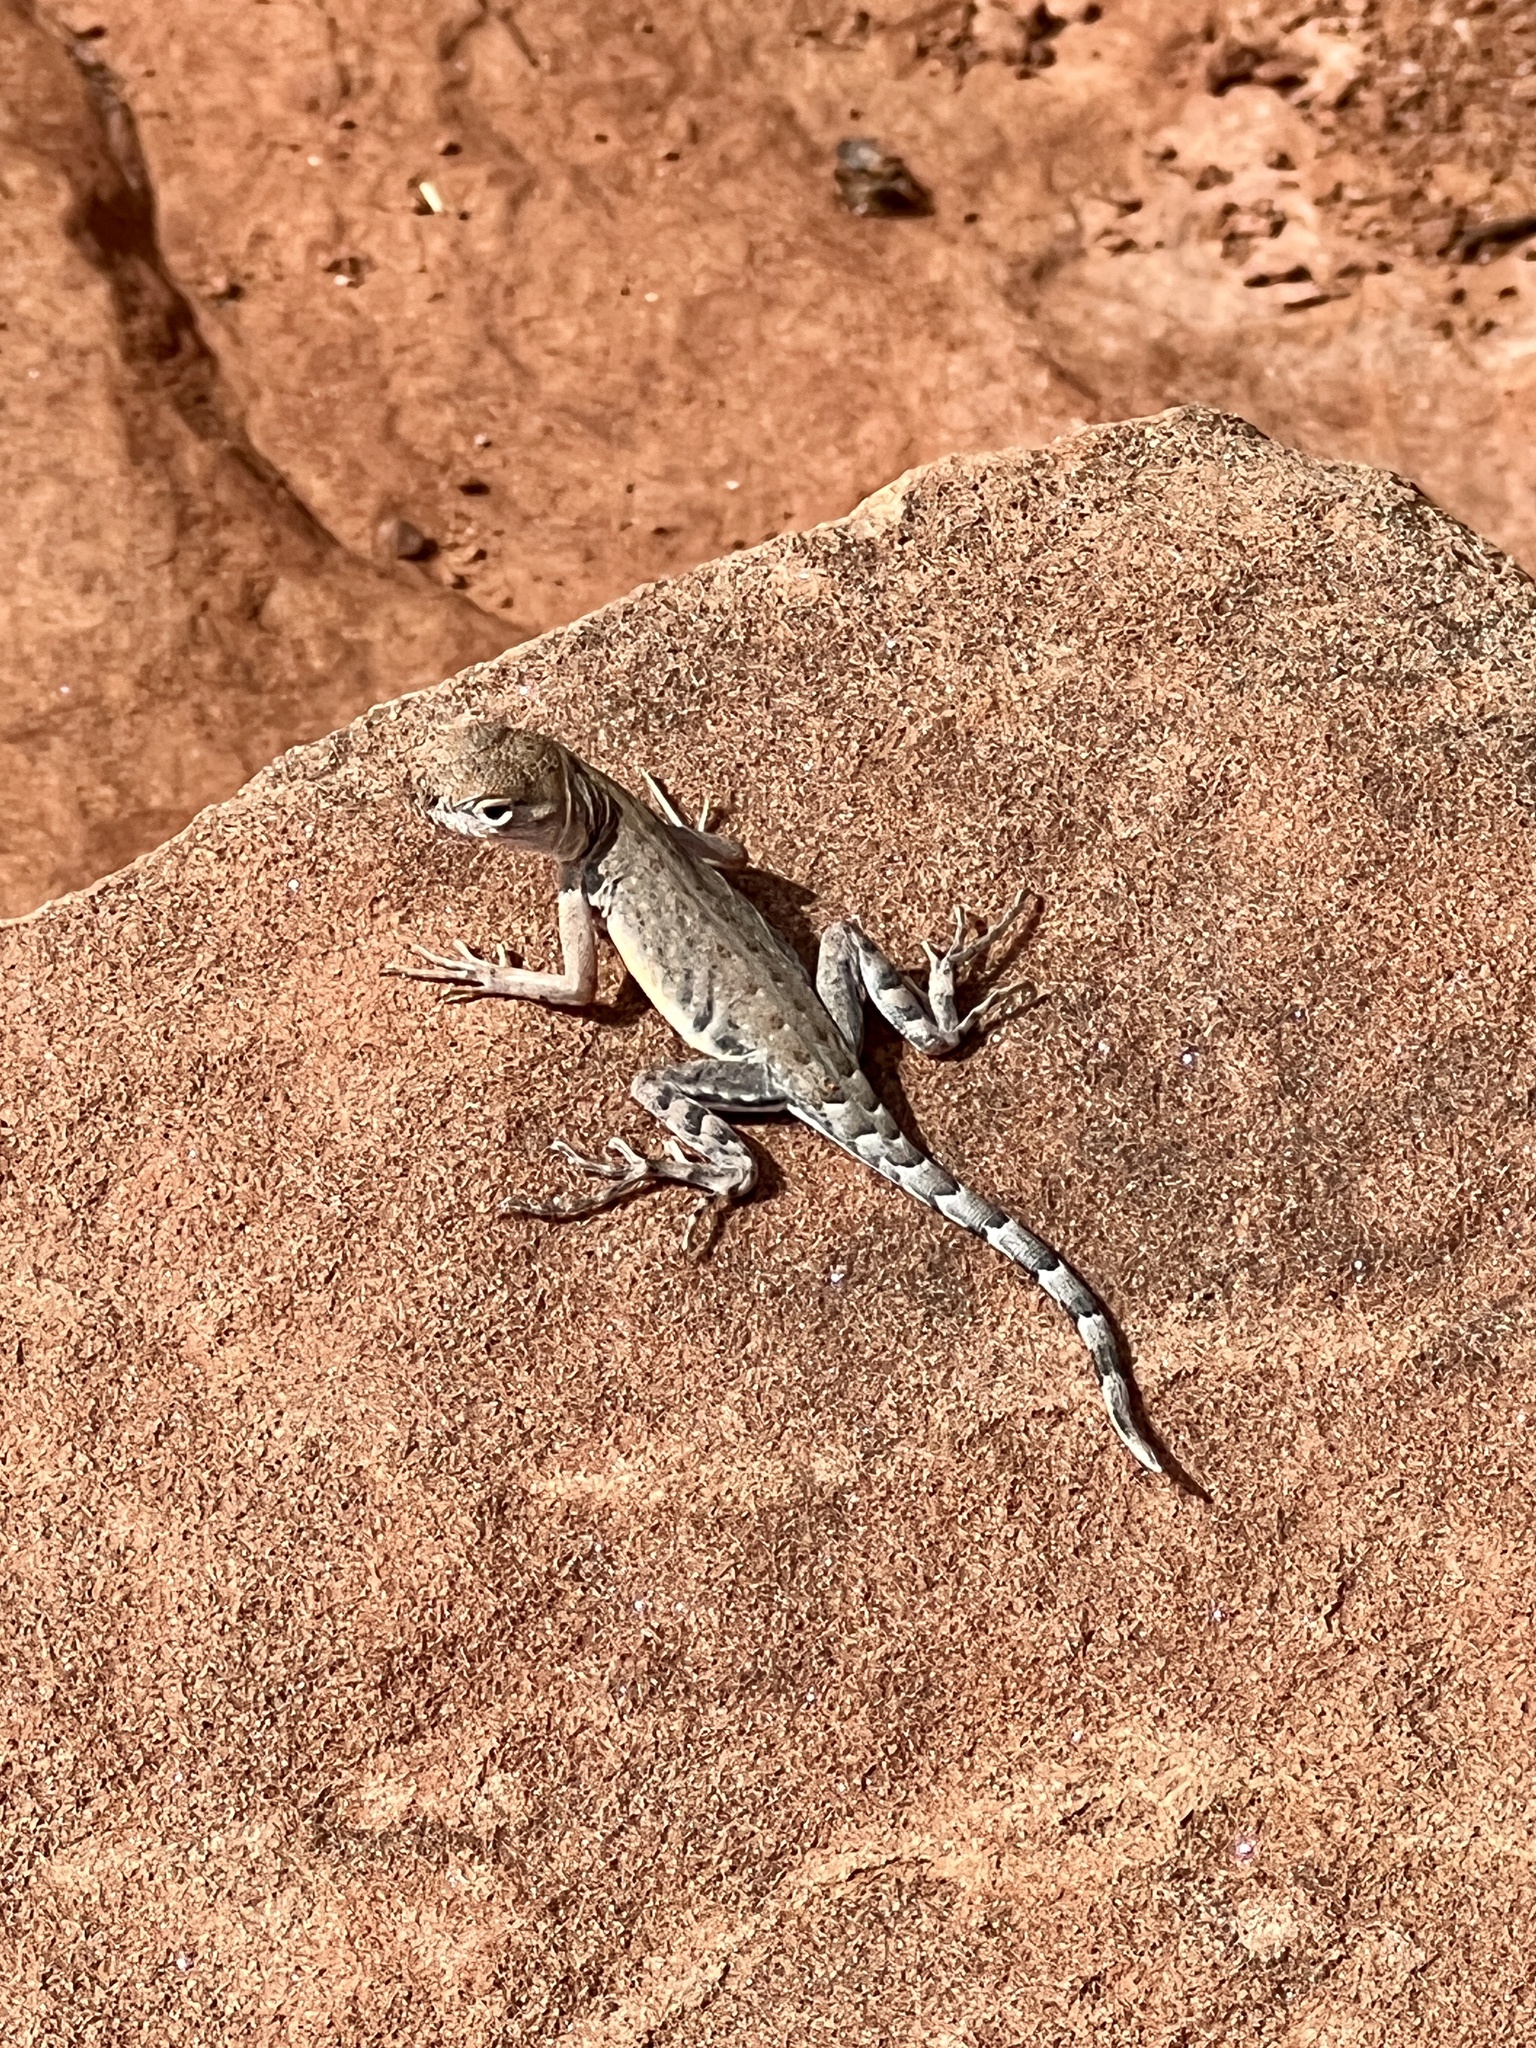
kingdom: Animalia
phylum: Chordata
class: Squamata
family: Phrynosomatidae
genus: Cophosaurus
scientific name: Cophosaurus texanus
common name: Greater earless lizard
